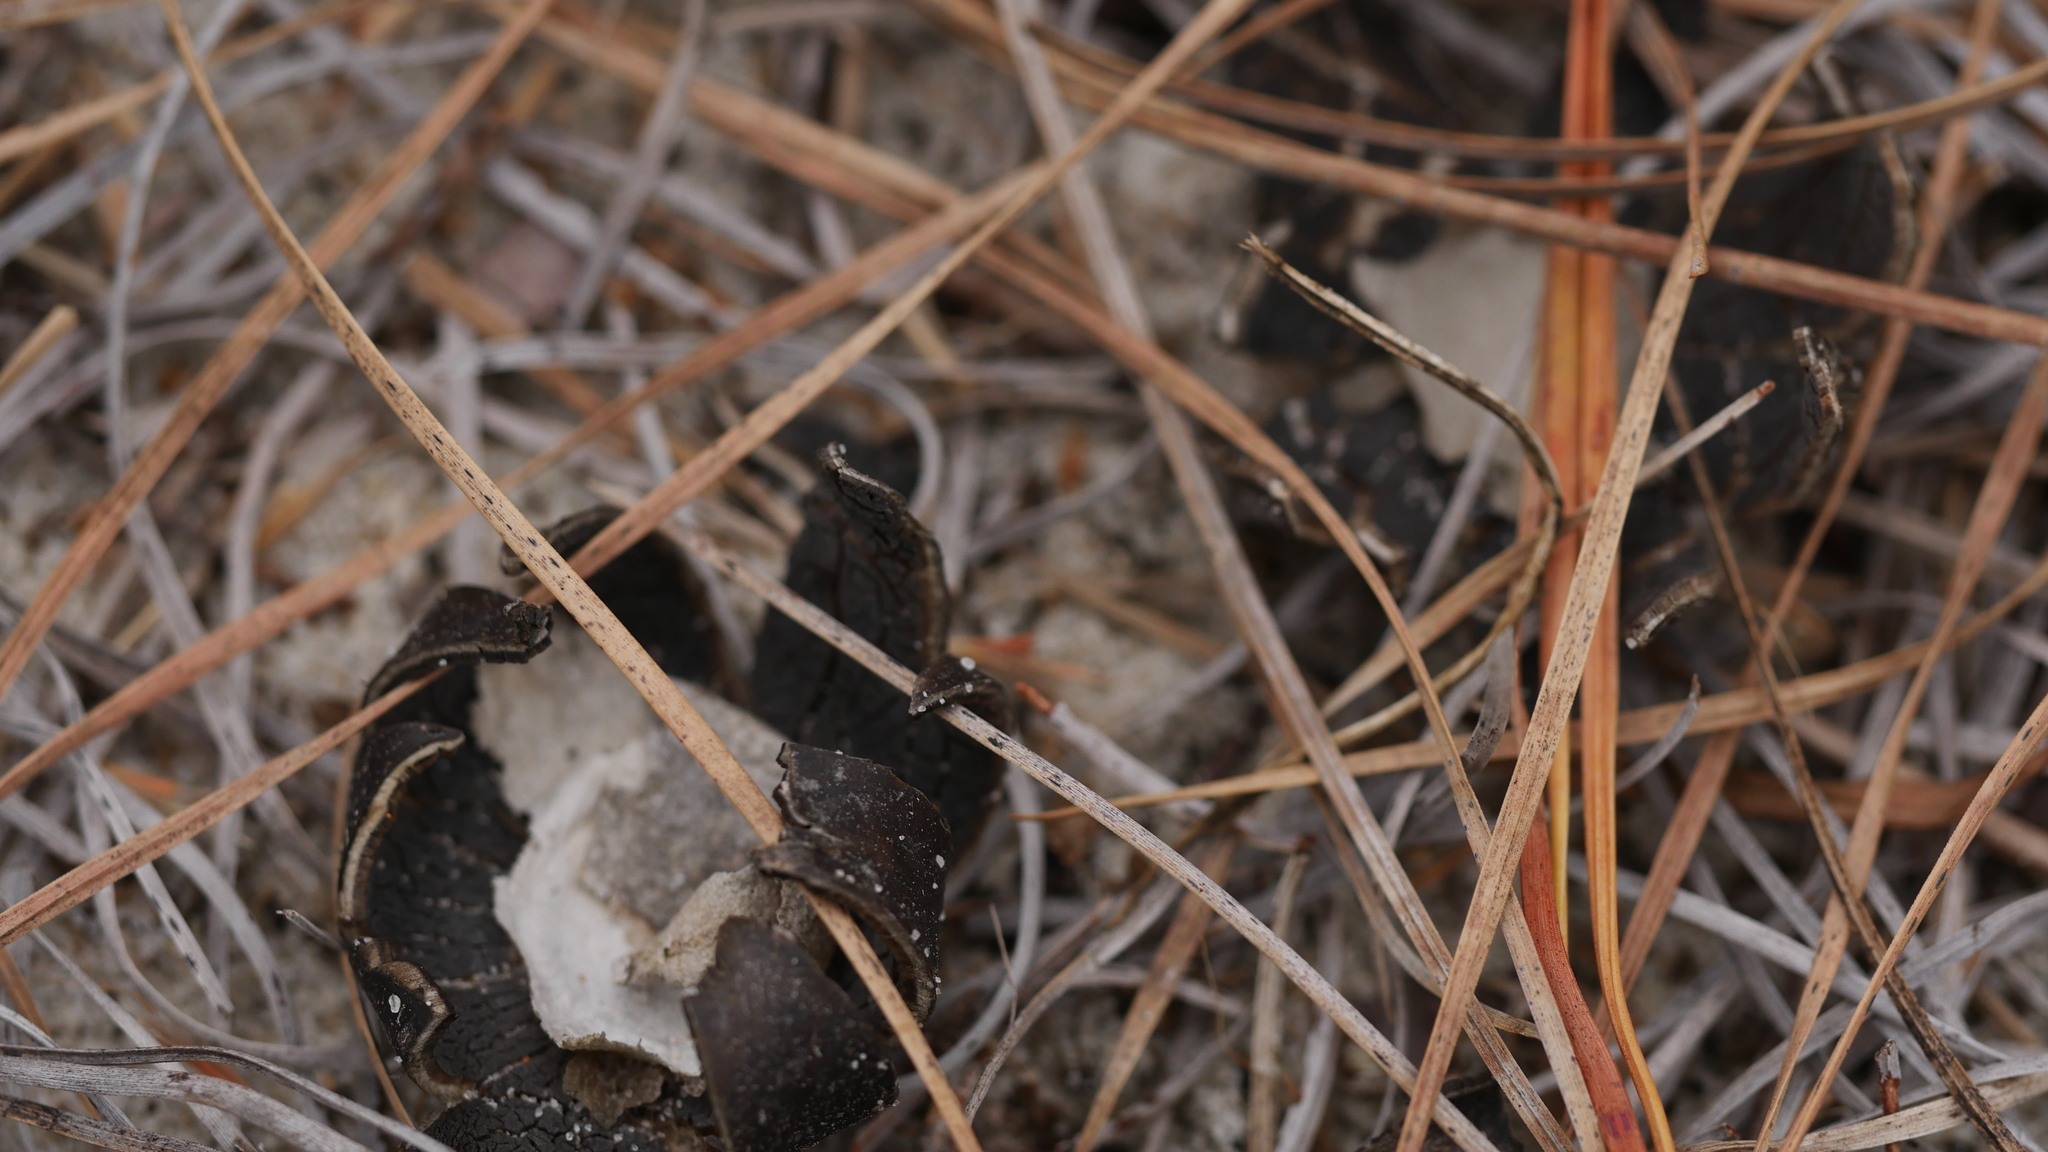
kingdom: Fungi
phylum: Basidiomycota
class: Agaricomycetes
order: Boletales
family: Diplocystidiaceae
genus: Astraeus
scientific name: Astraeus smithii
